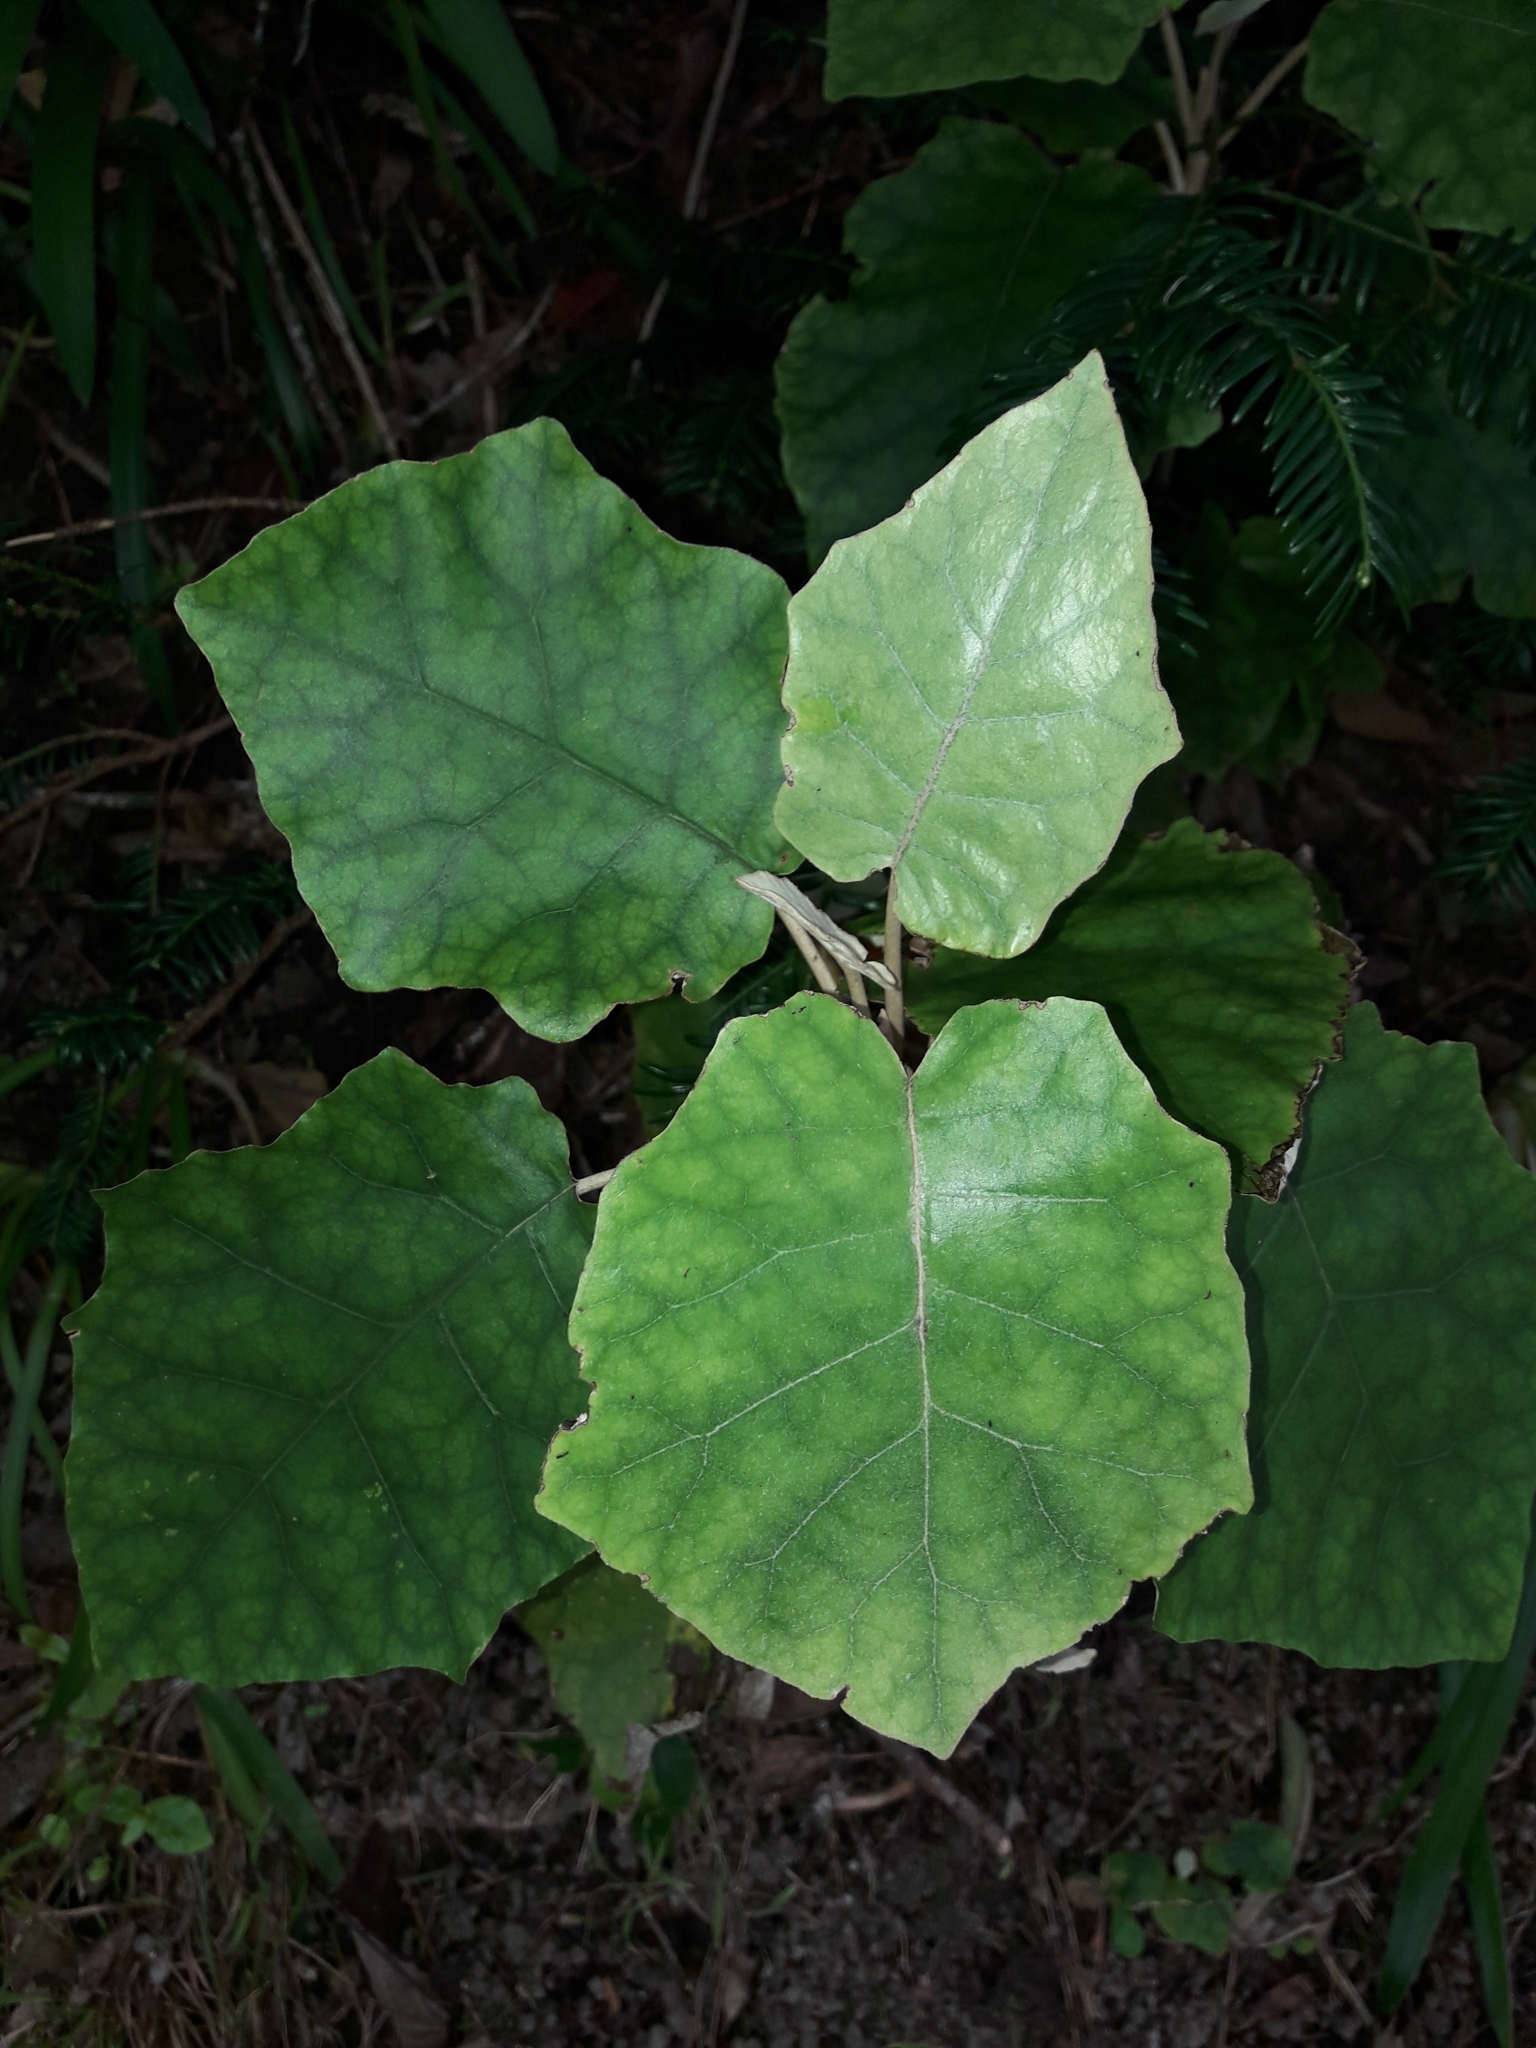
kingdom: Plantae
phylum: Tracheophyta
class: Magnoliopsida
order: Asterales
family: Asteraceae
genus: Brachyglottis
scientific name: Brachyglottis repanda
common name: Hedge ragwort
